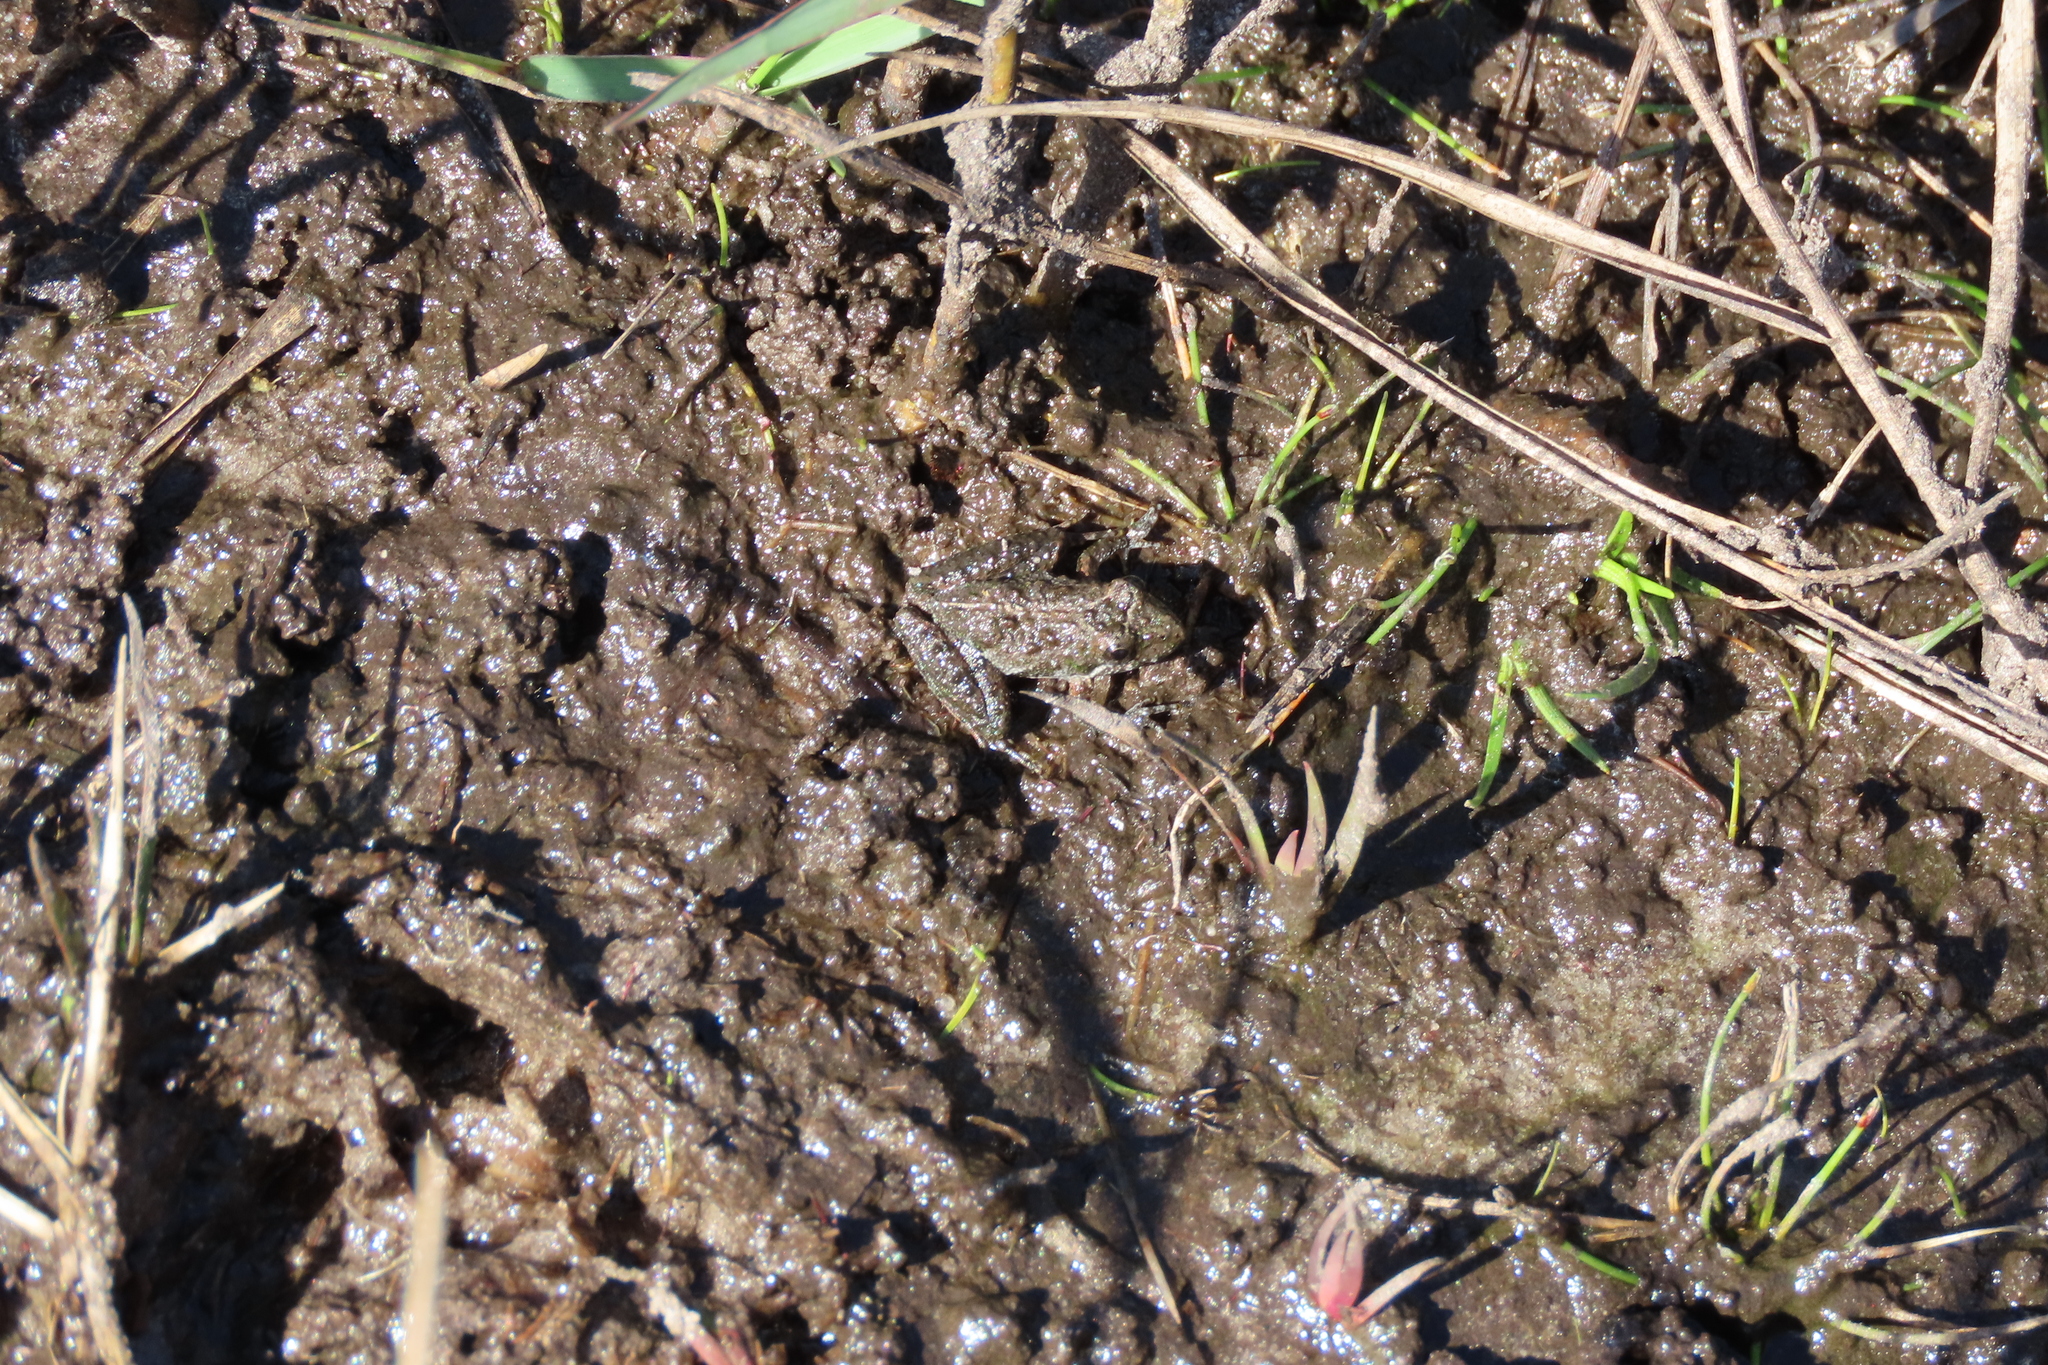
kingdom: Animalia
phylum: Chordata
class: Amphibia
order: Anura
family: Hylidae
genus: Acris
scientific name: Acris gryllus
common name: Southern cricket frog
